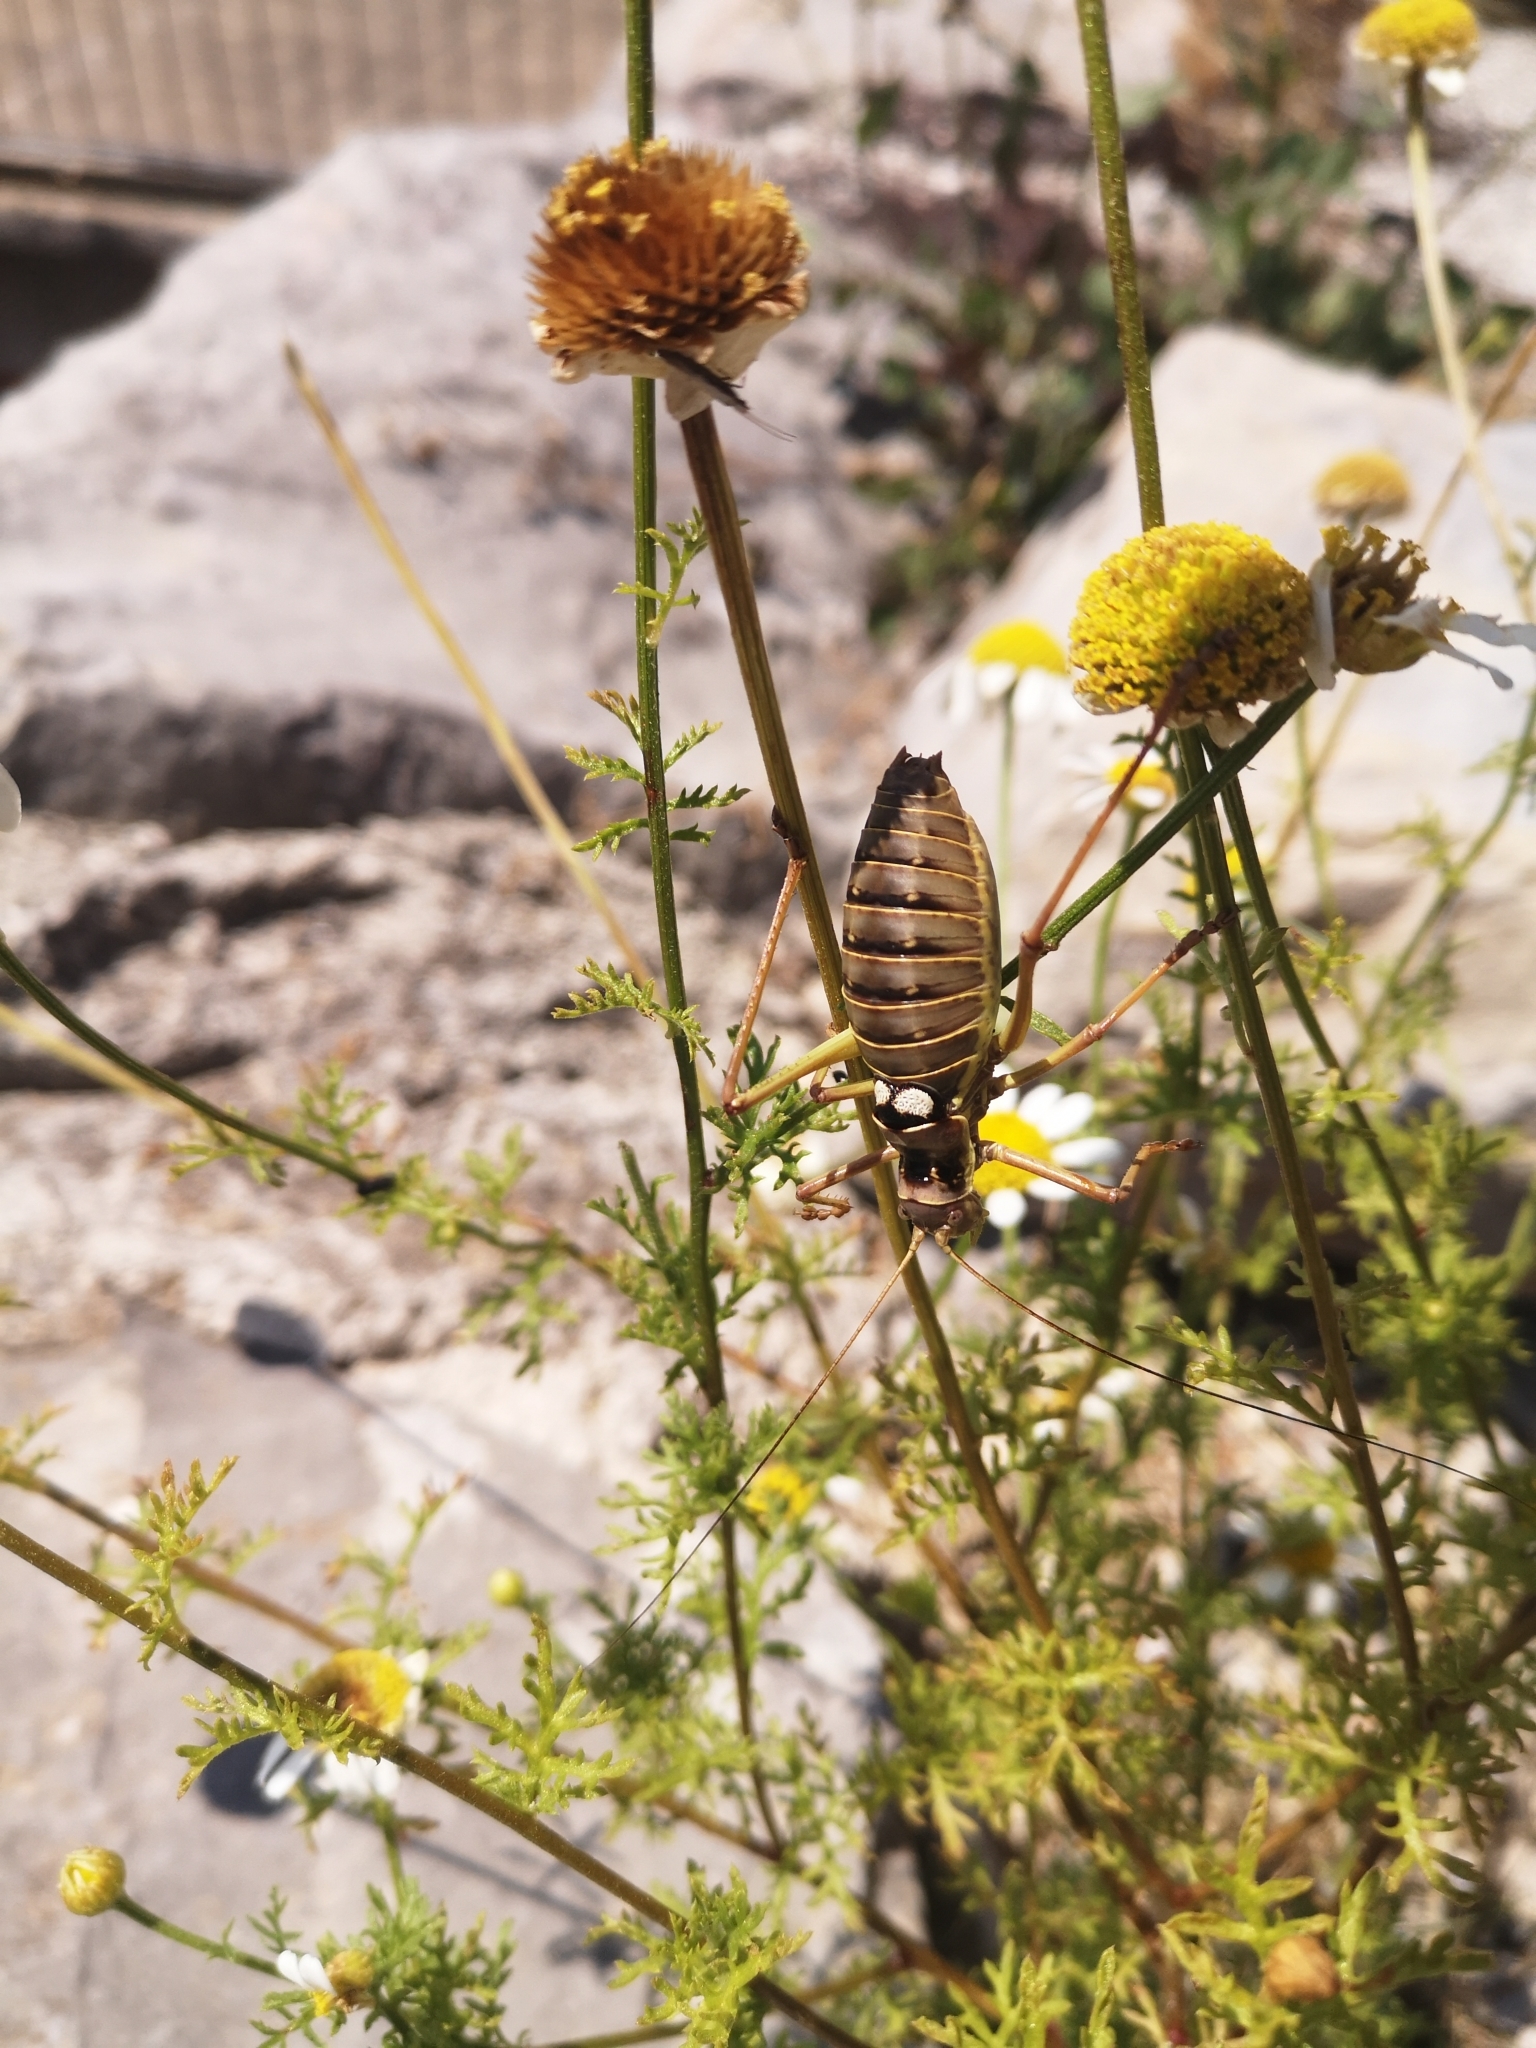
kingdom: Animalia
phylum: Arthropoda
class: Insecta
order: Orthoptera
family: Tettigoniidae
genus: Dinarippiger
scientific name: Dinarippiger discoidalis
